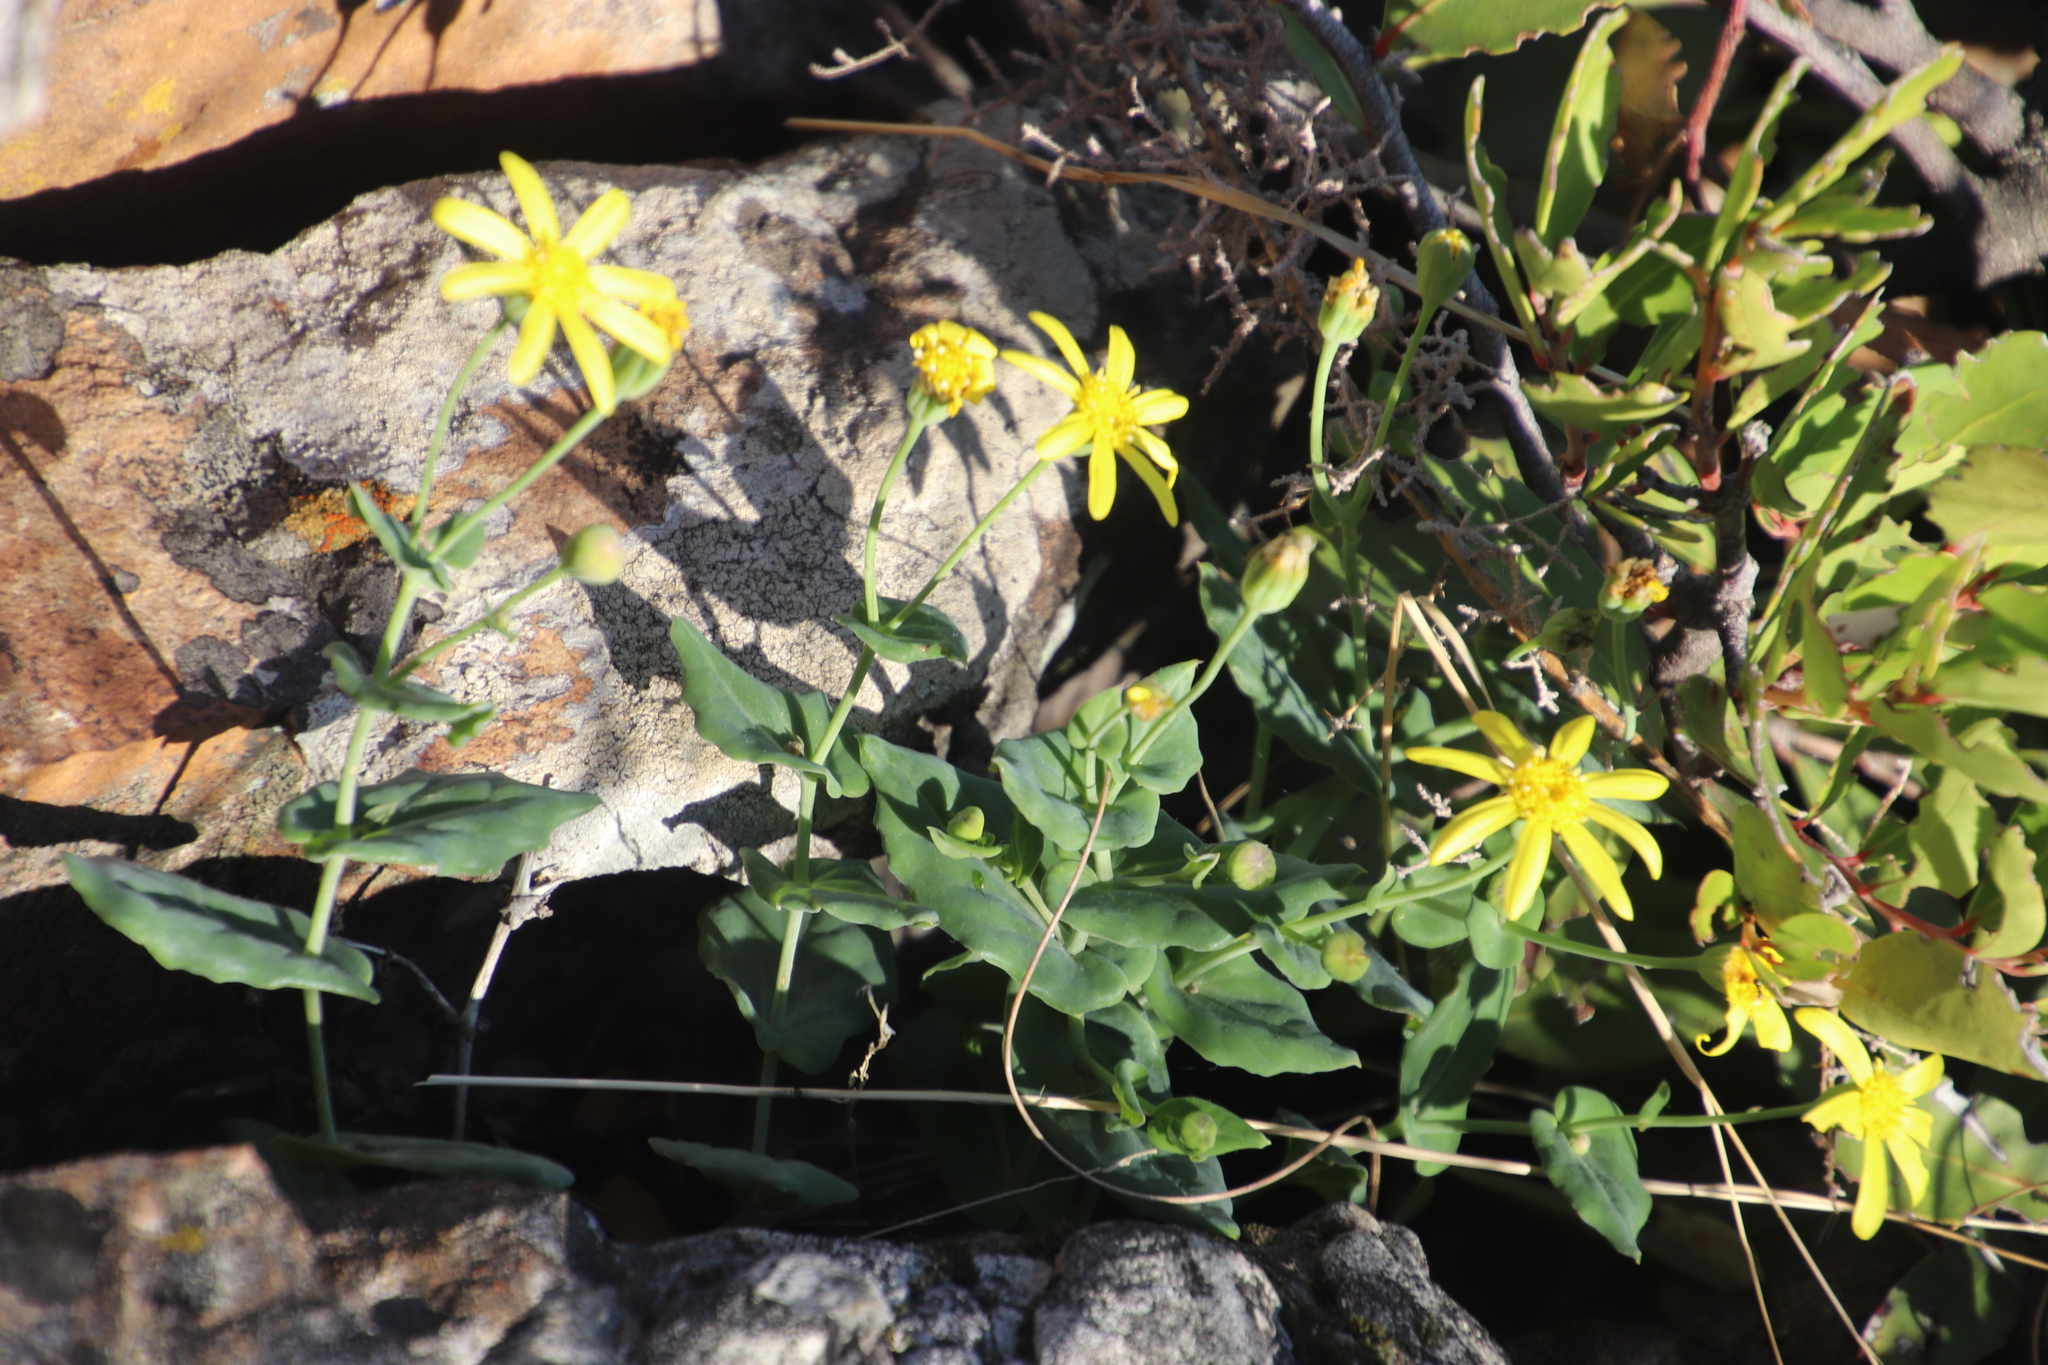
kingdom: Plantae
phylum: Tracheophyta
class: Magnoliopsida
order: Asterales
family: Asteraceae
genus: Othonna
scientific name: Othonna perfoliata
